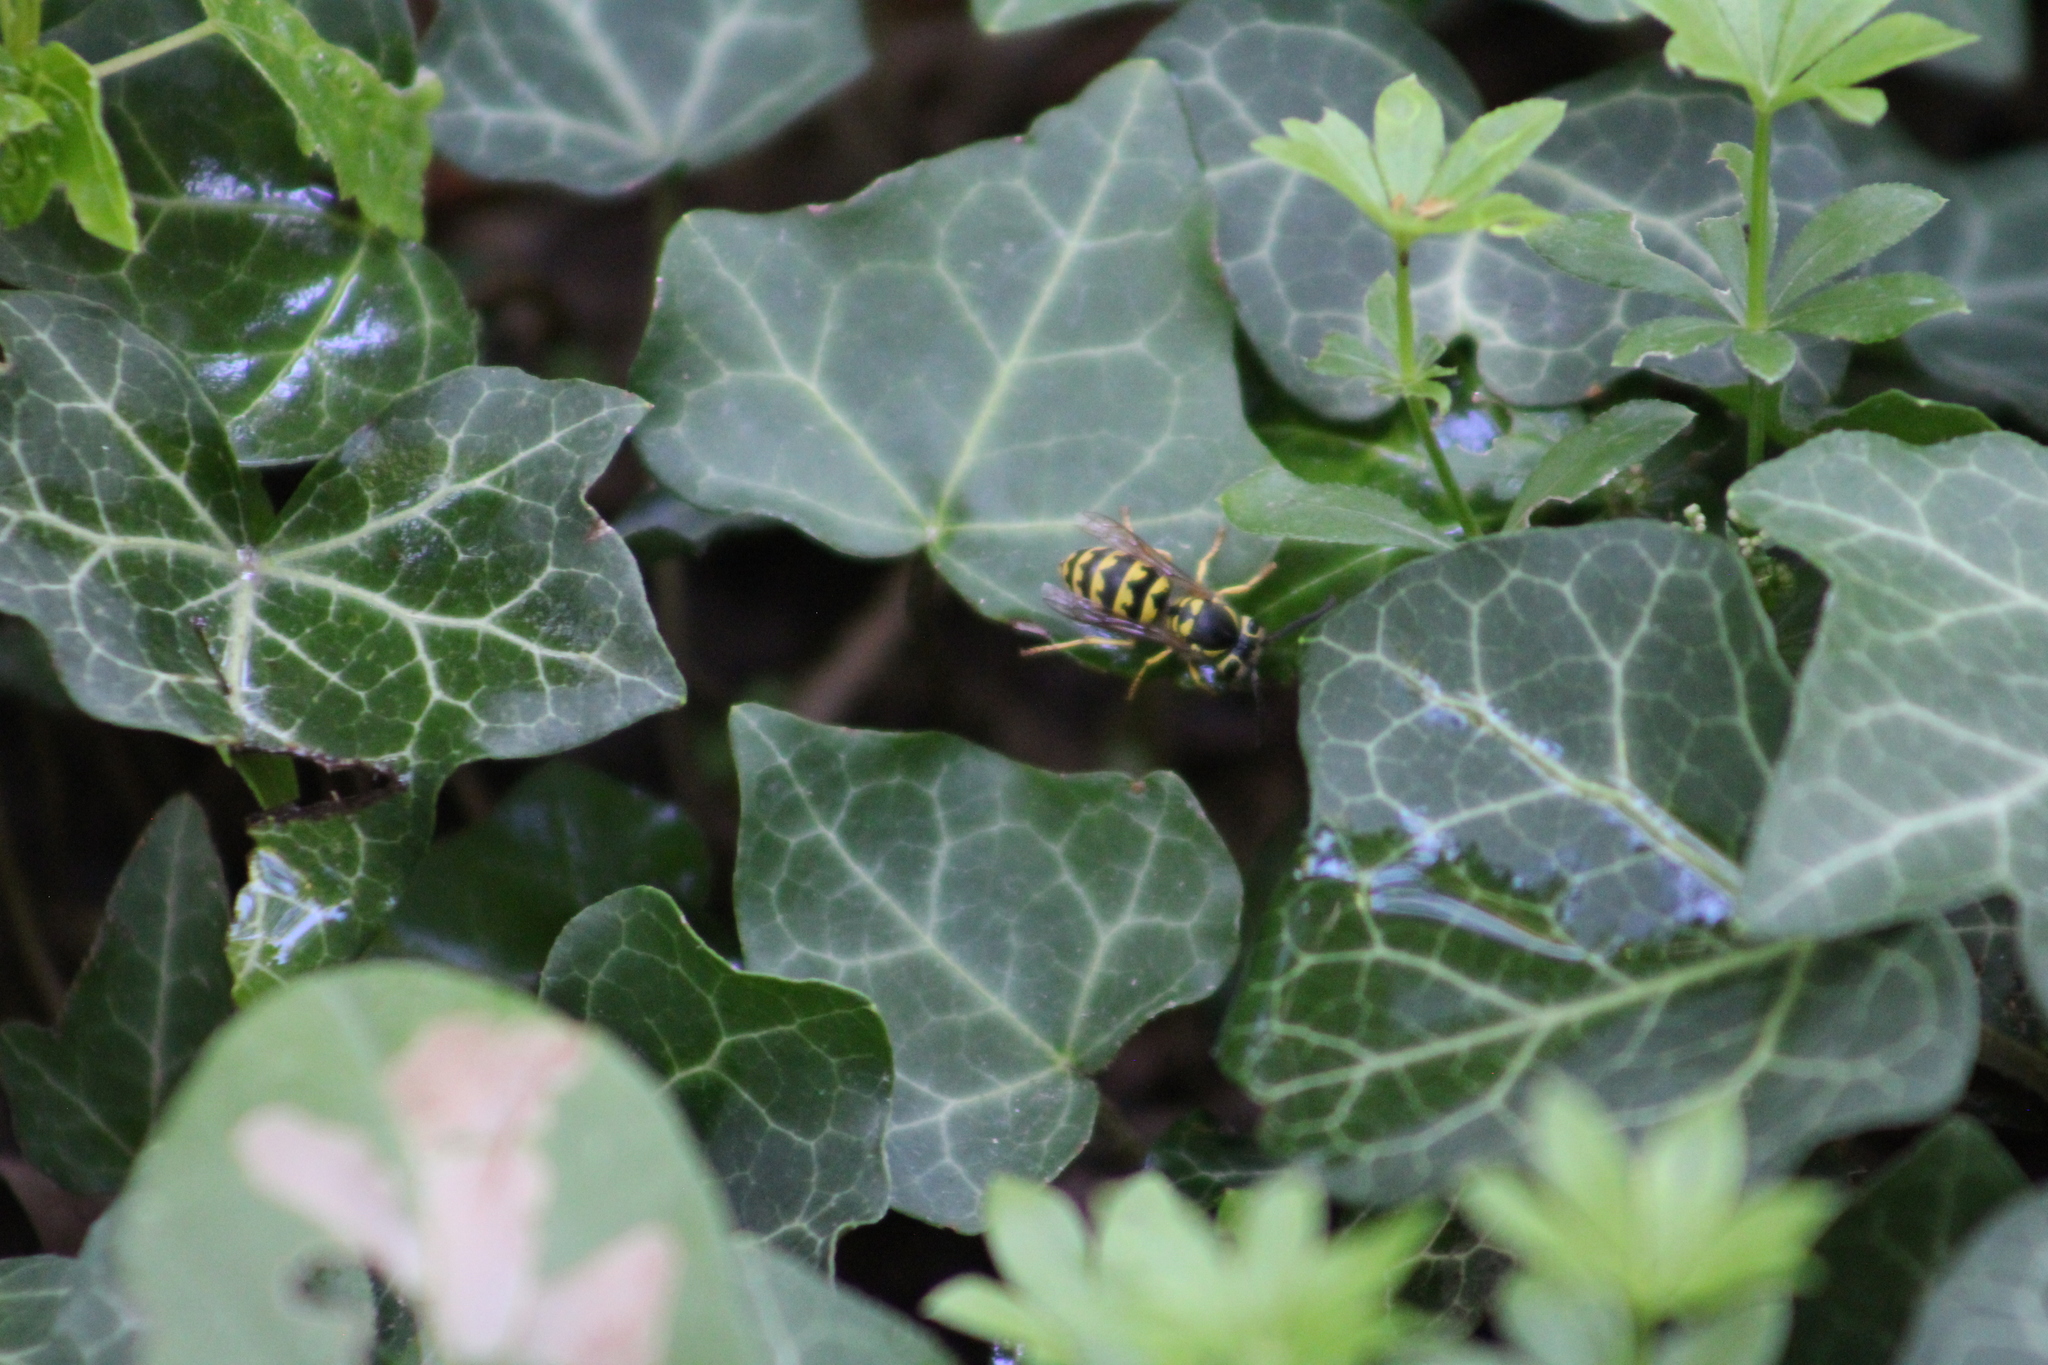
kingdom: Animalia
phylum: Arthropoda
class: Insecta
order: Hymenoptera
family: Vespidae
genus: Vespula
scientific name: Vespula pensylvanica
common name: Western yellowjacket
